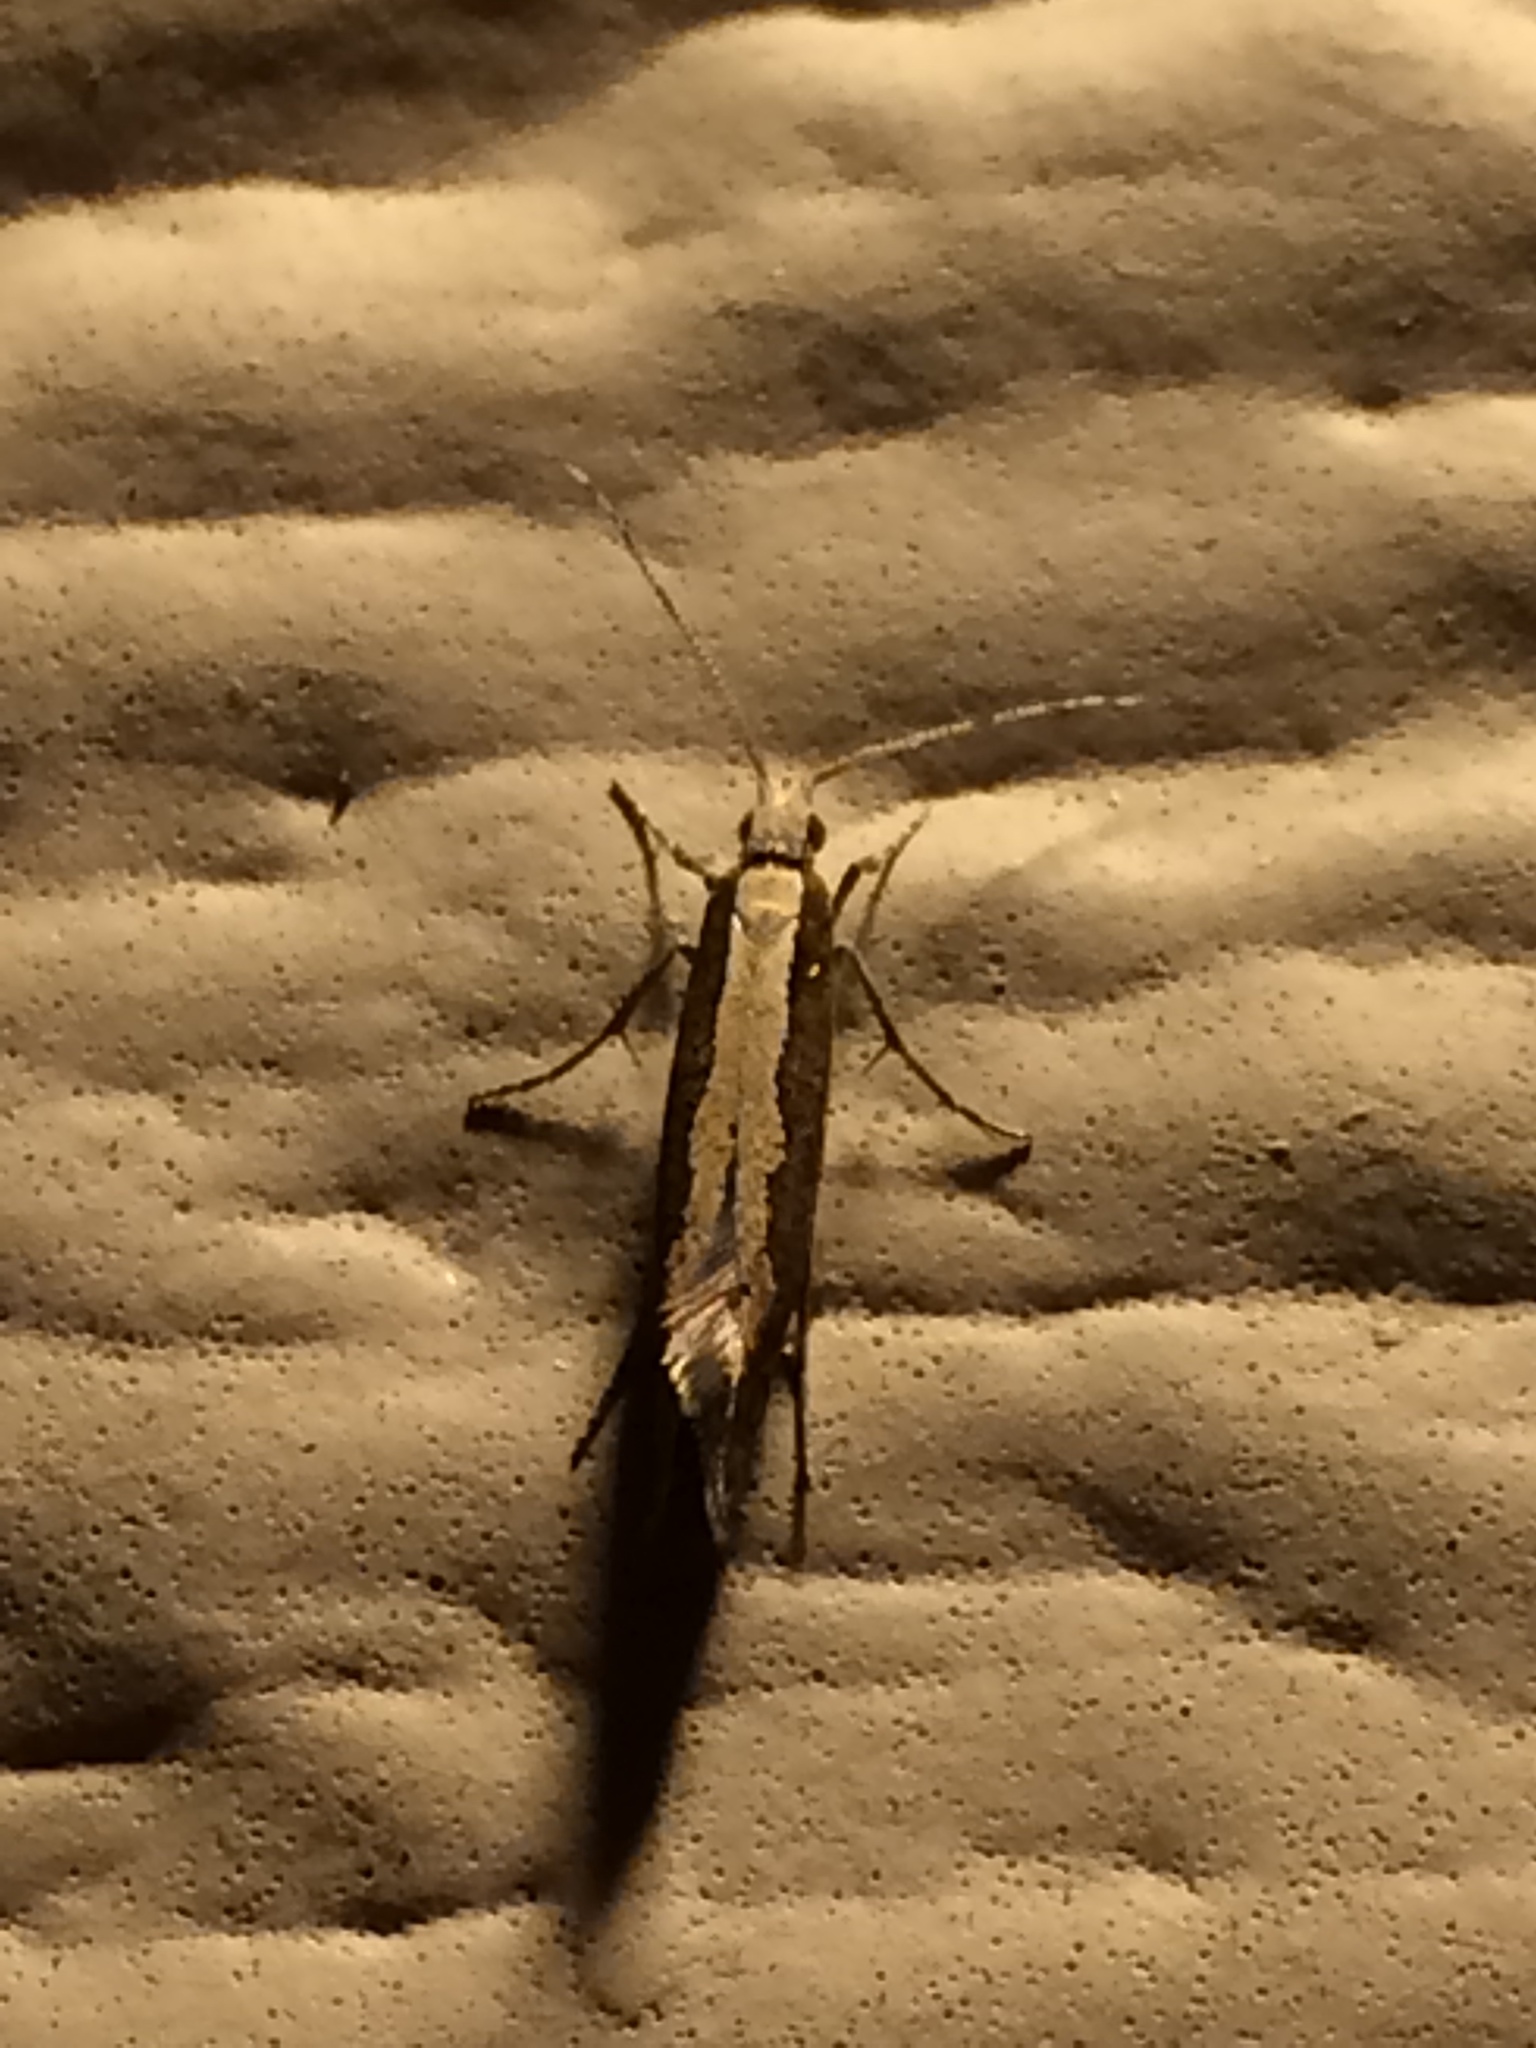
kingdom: Animalia
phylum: Arthropoda
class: Insecta
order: Lepidoptera
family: Plutellidae
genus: Plutella
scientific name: Plutella xylostella
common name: Diamond-back moth
